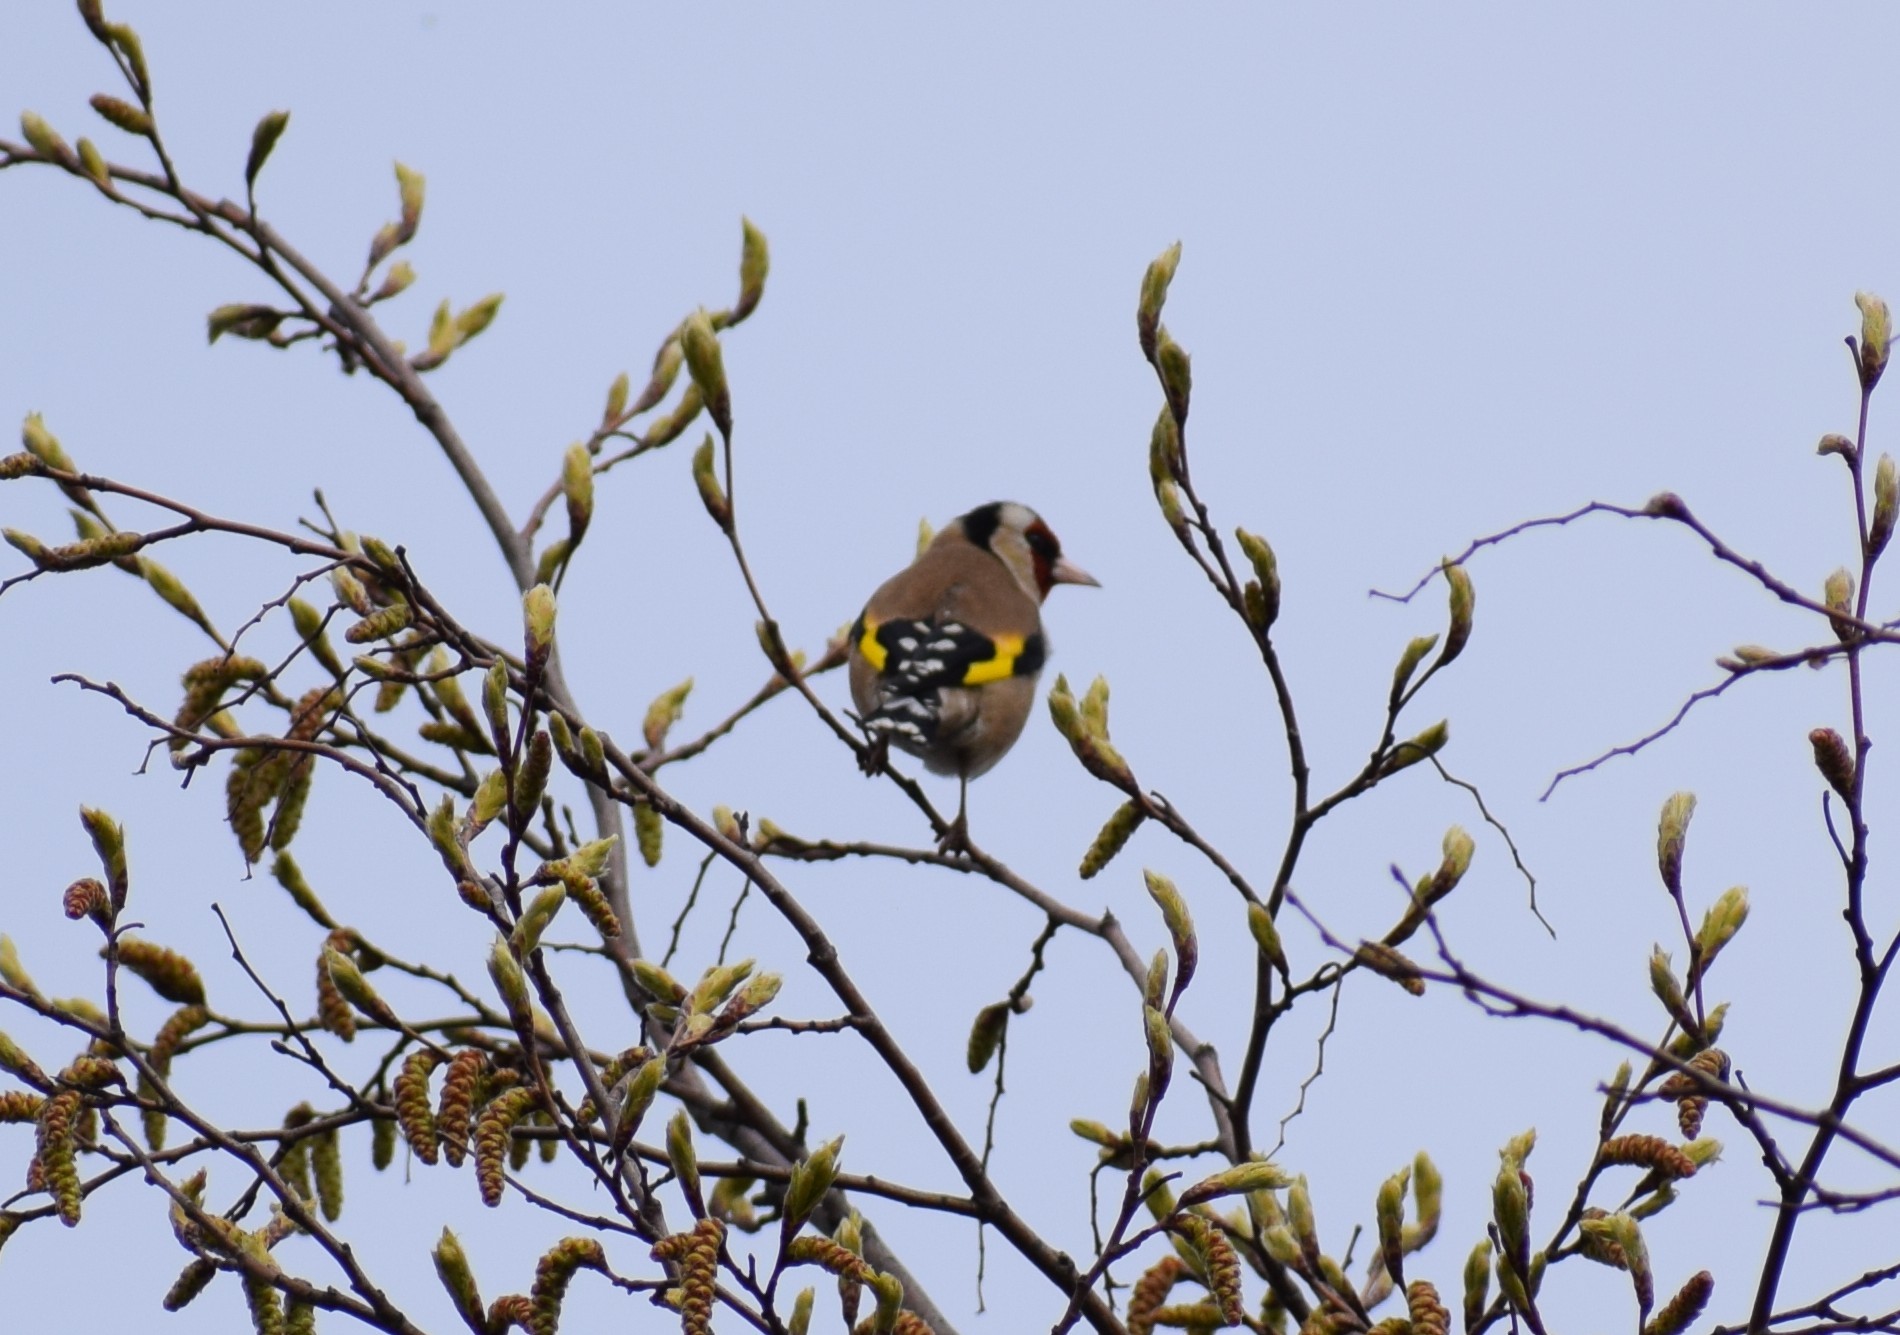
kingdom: Animalia
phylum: Chordata
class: Aves
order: Passeriformes
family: Fringillidae
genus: Carduelis
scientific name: Carduelis carduelis
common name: European goldfinch
